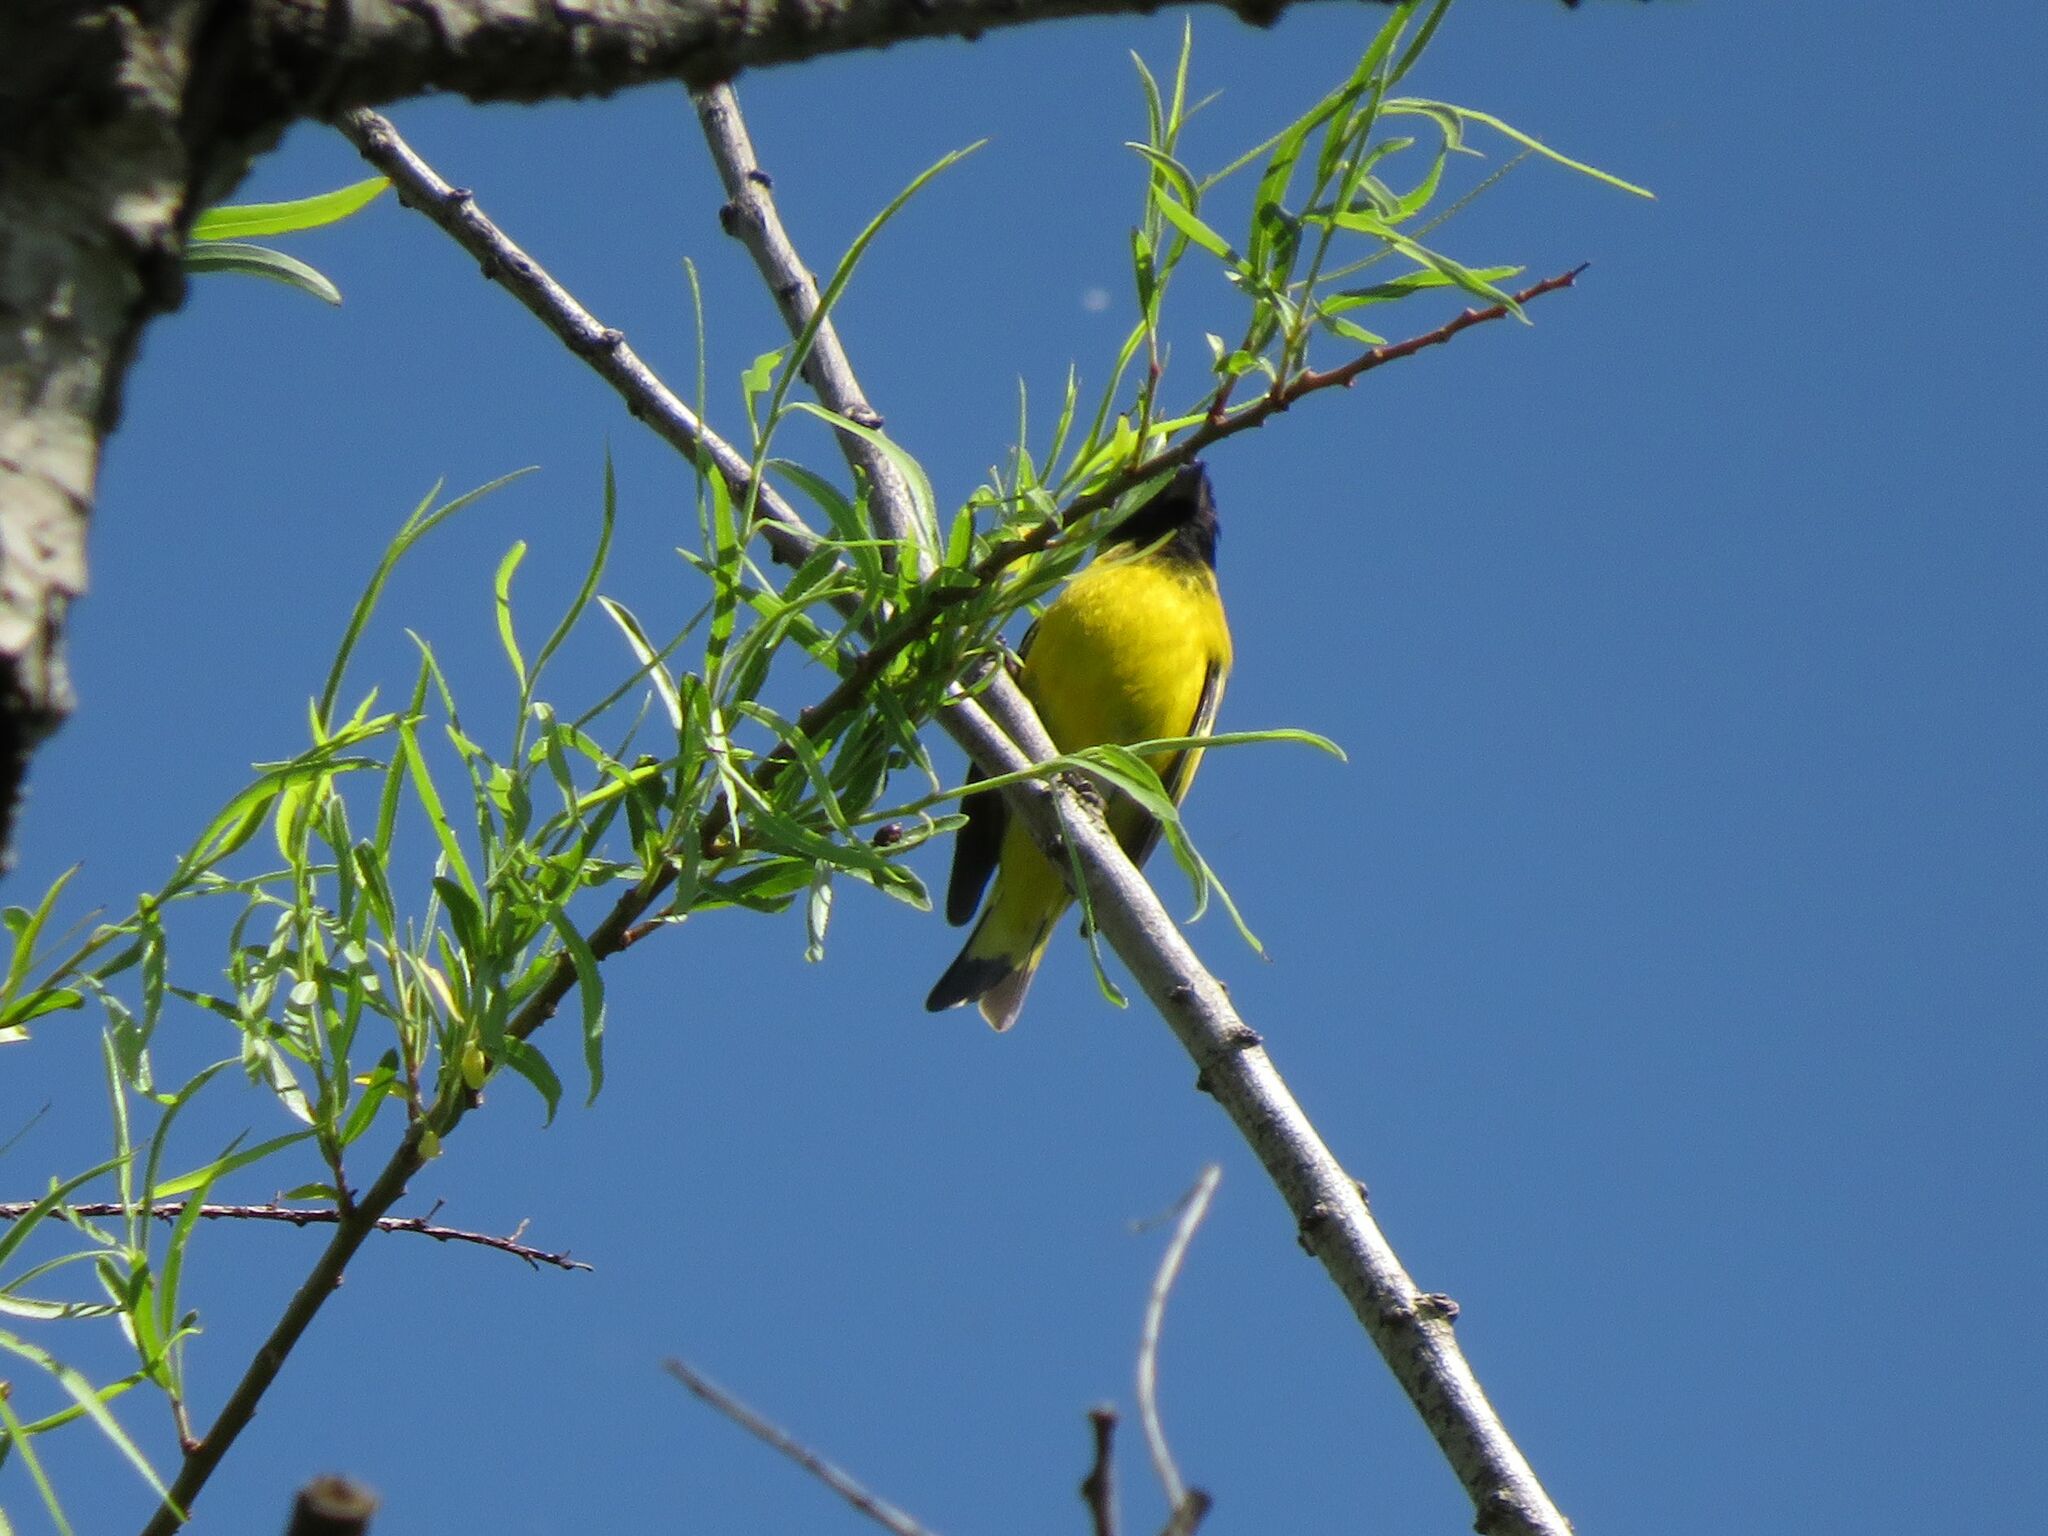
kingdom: Animalia
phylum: Chordata
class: Aves
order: Passeriformes
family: Fringillidae
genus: Spinus
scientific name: Spinus magellanicus
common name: Hooded siskin
